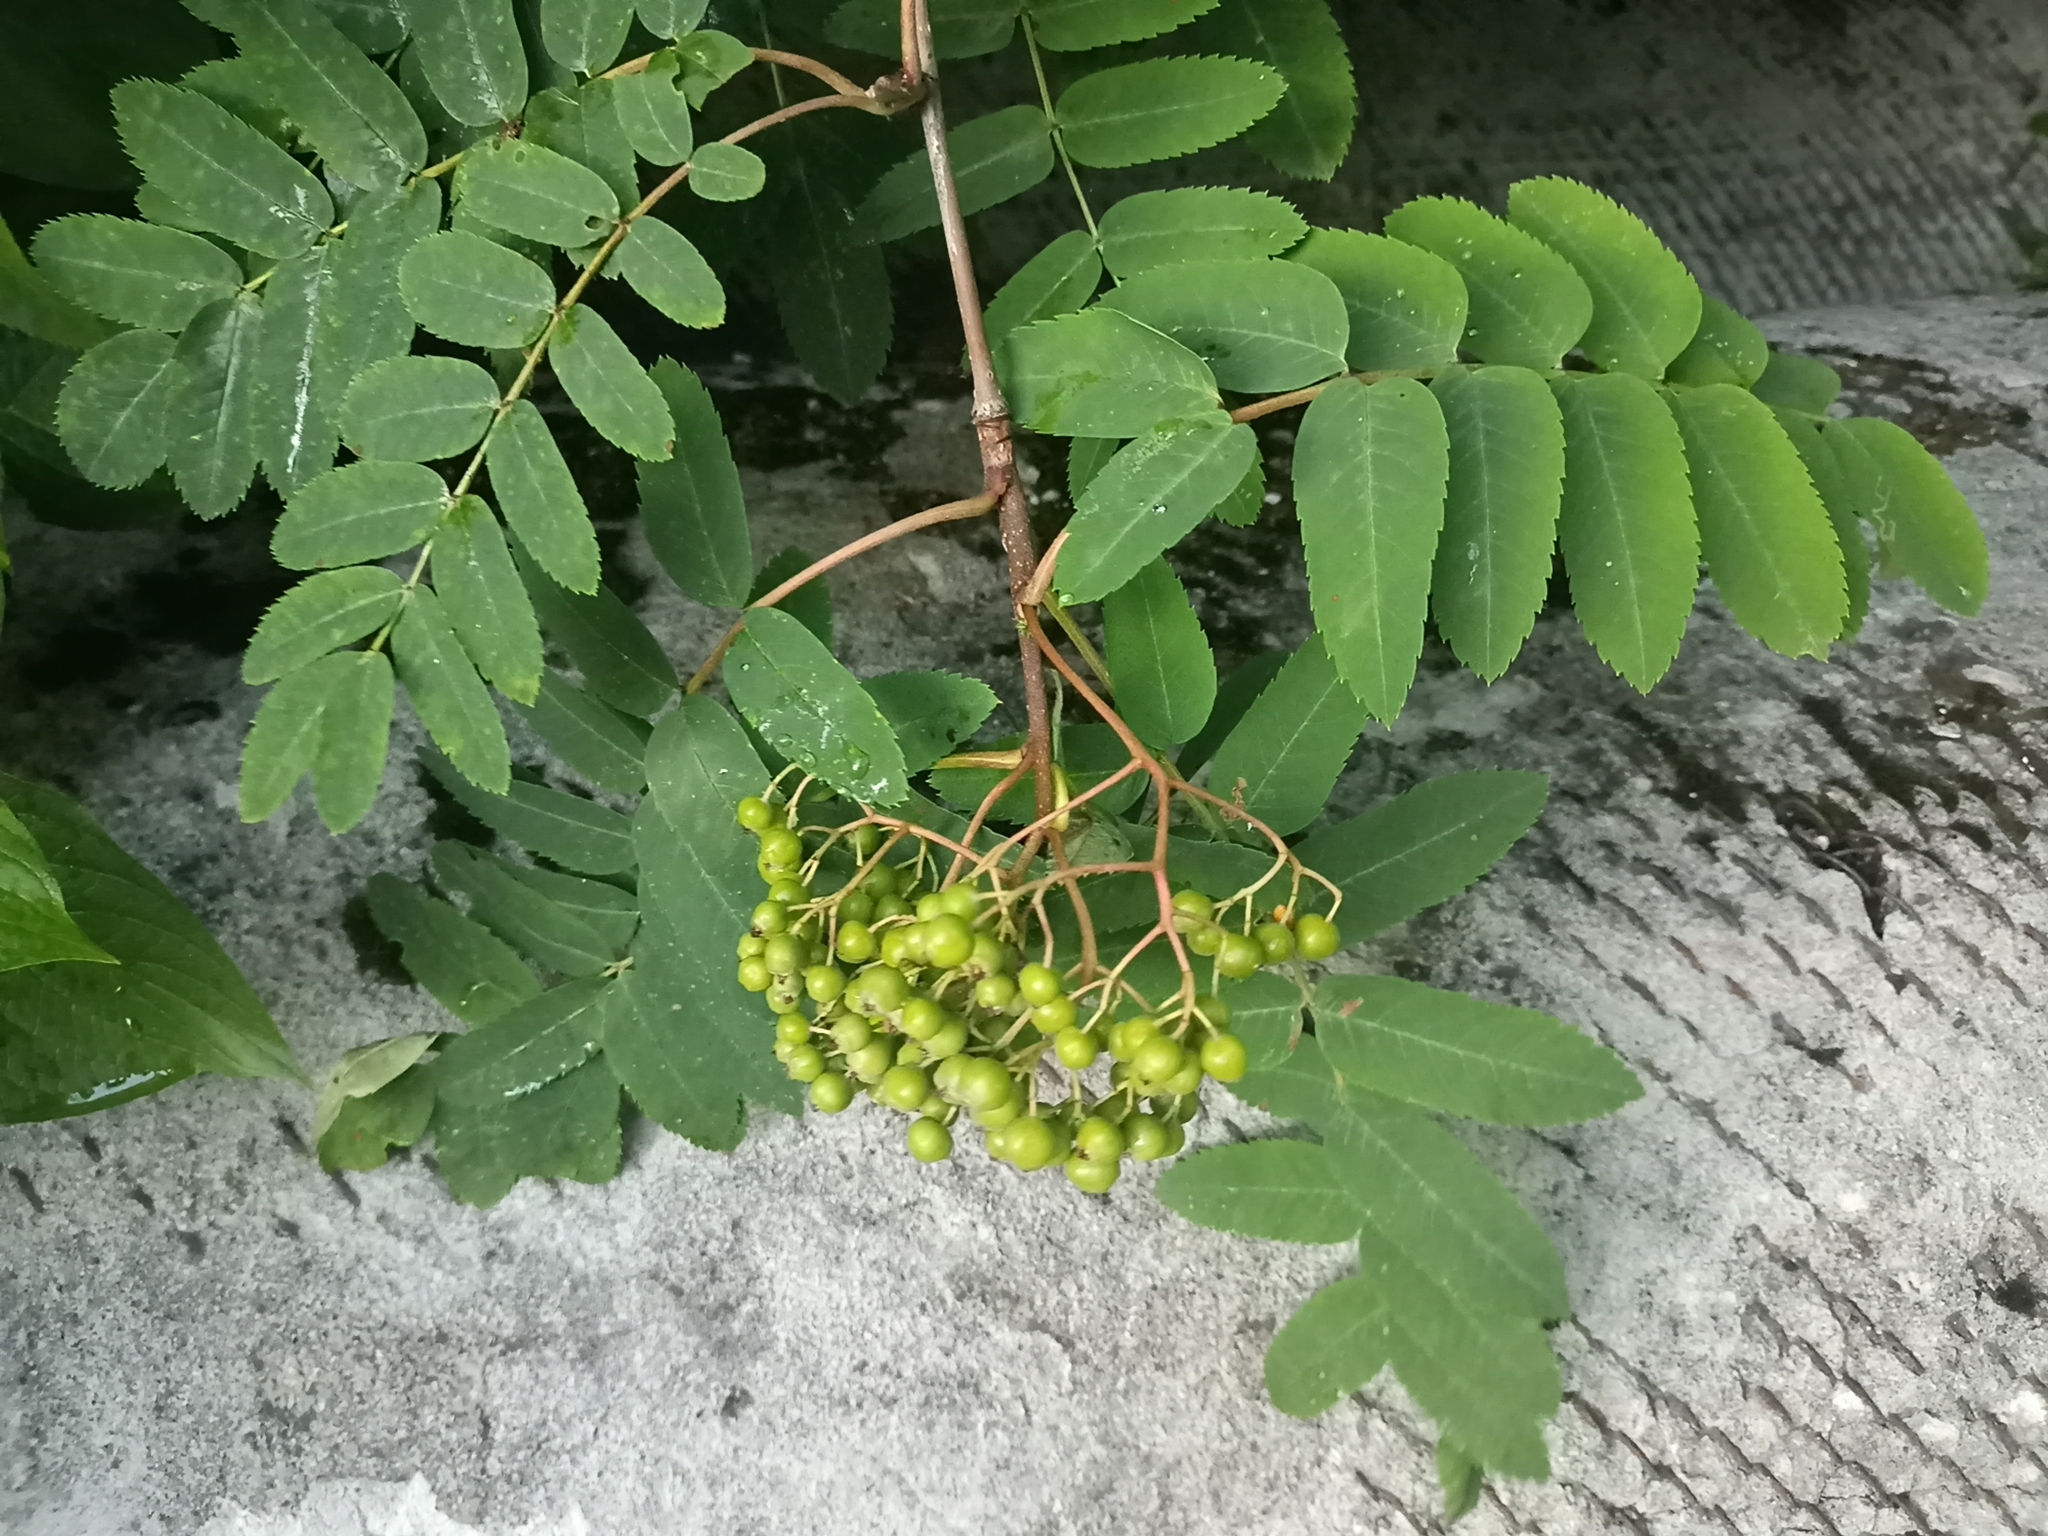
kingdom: Plantae
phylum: Tracheophyta
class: Magnoliopsida
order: Rosales
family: Rosaceae
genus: Sorbus
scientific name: Sorbus aucuparia
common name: Rowan
